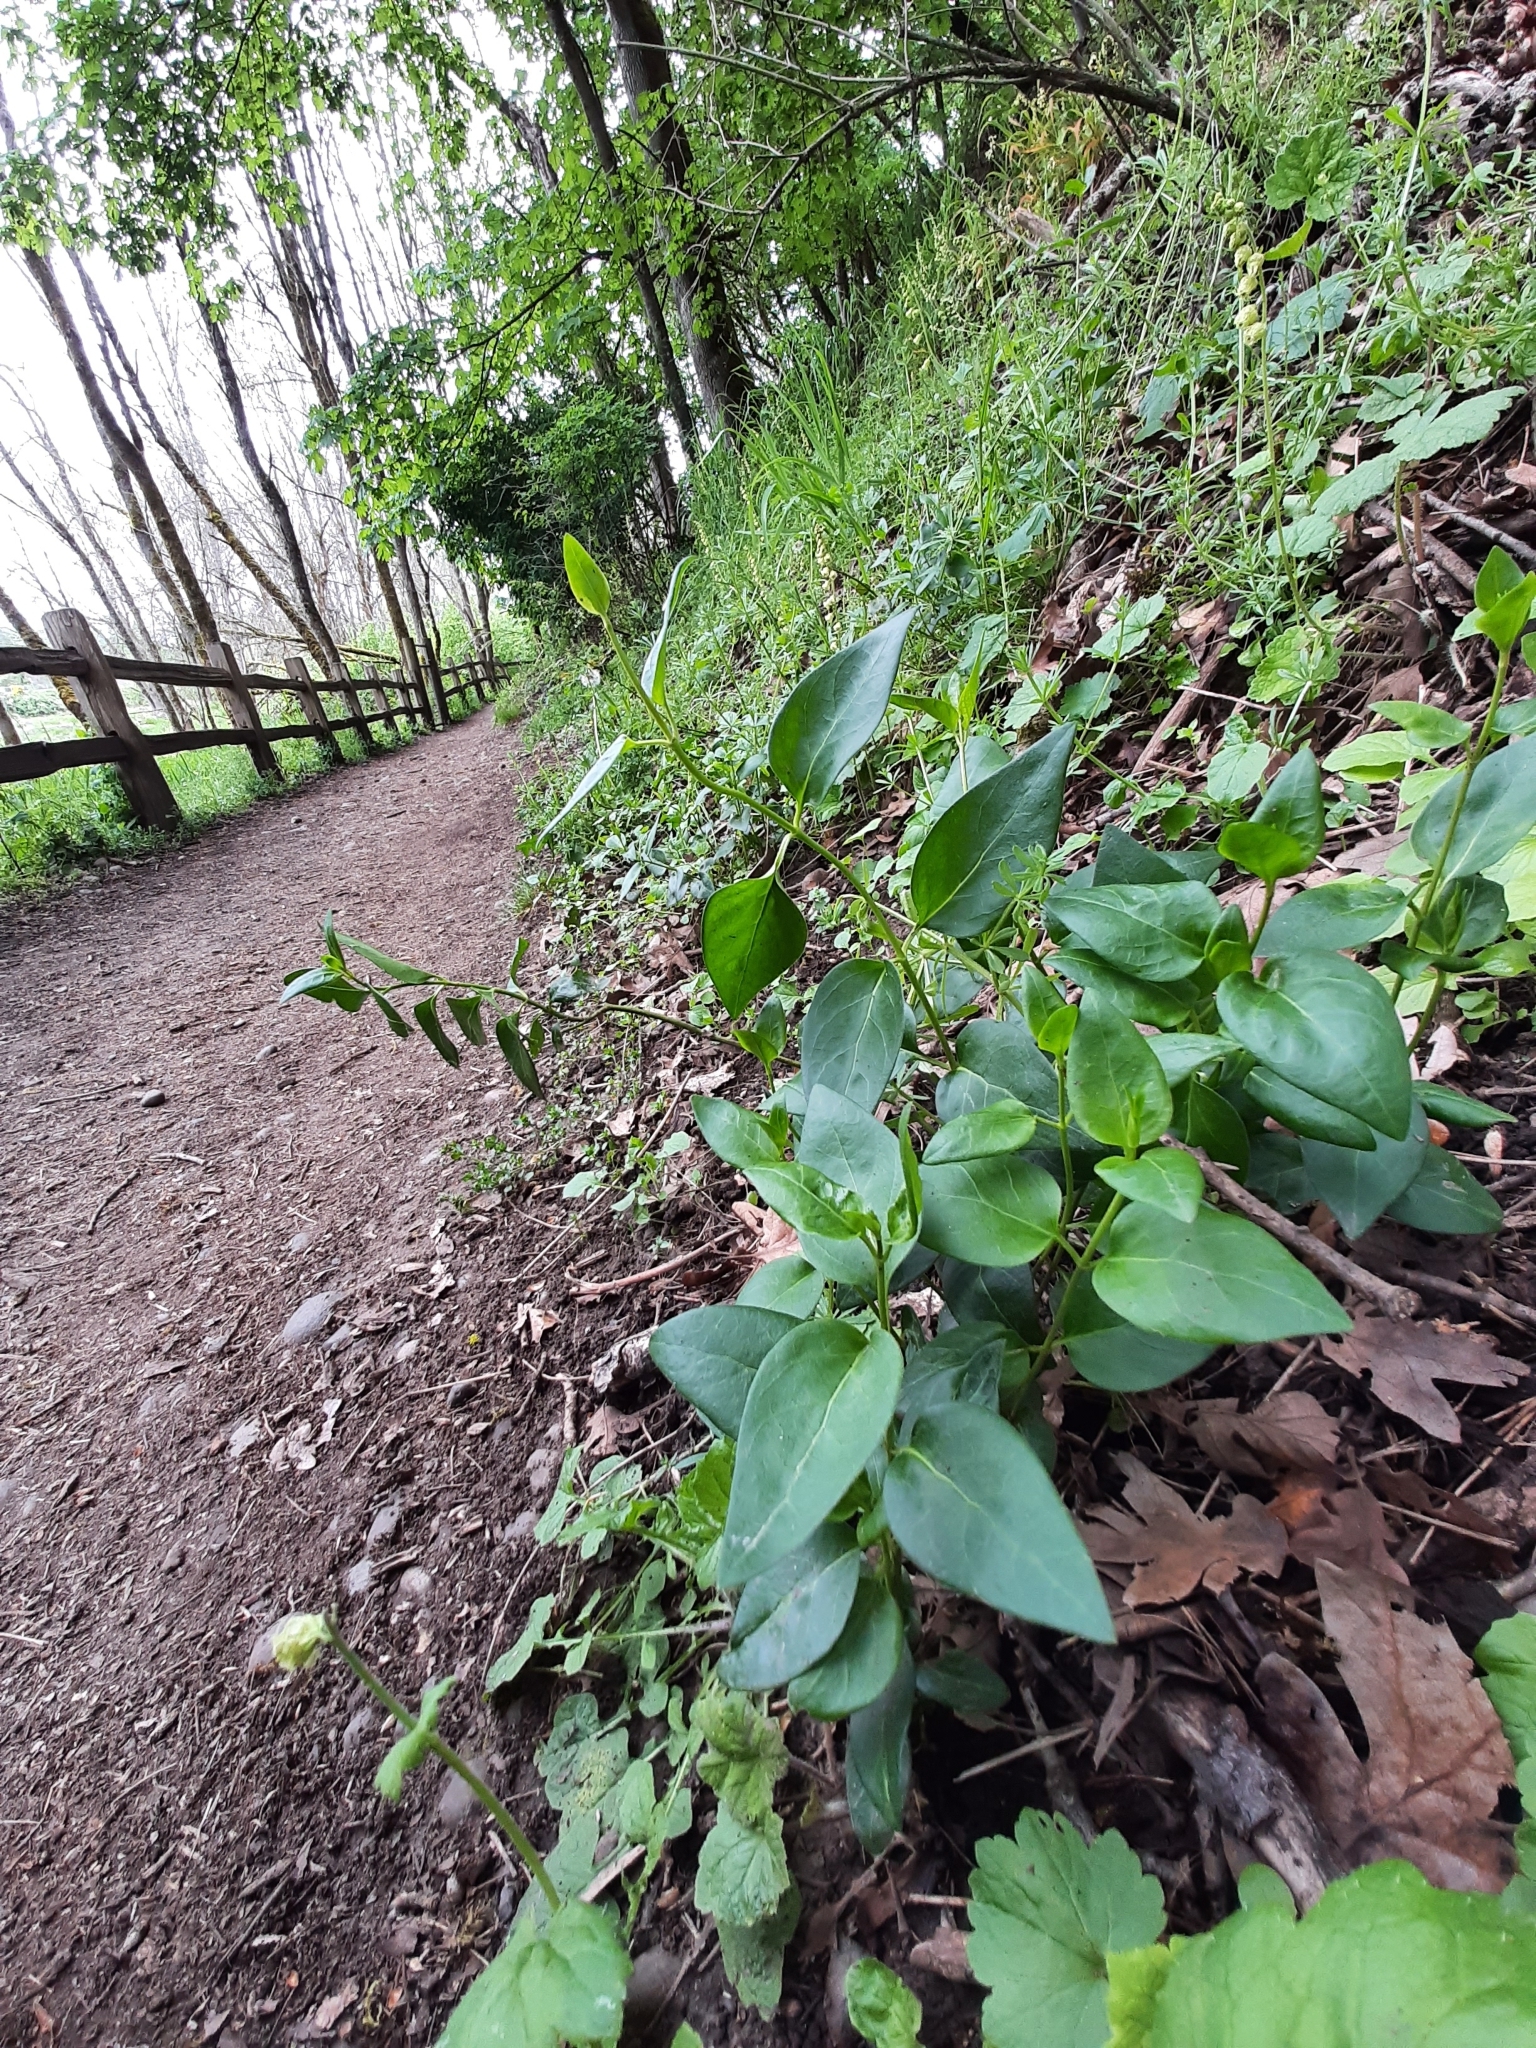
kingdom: Plantae
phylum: Tracheophyta
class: Magnoliopsida
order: Gentianales
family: Apocynaceae
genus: Vinca
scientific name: Vinca major
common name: Greater periwinkle
